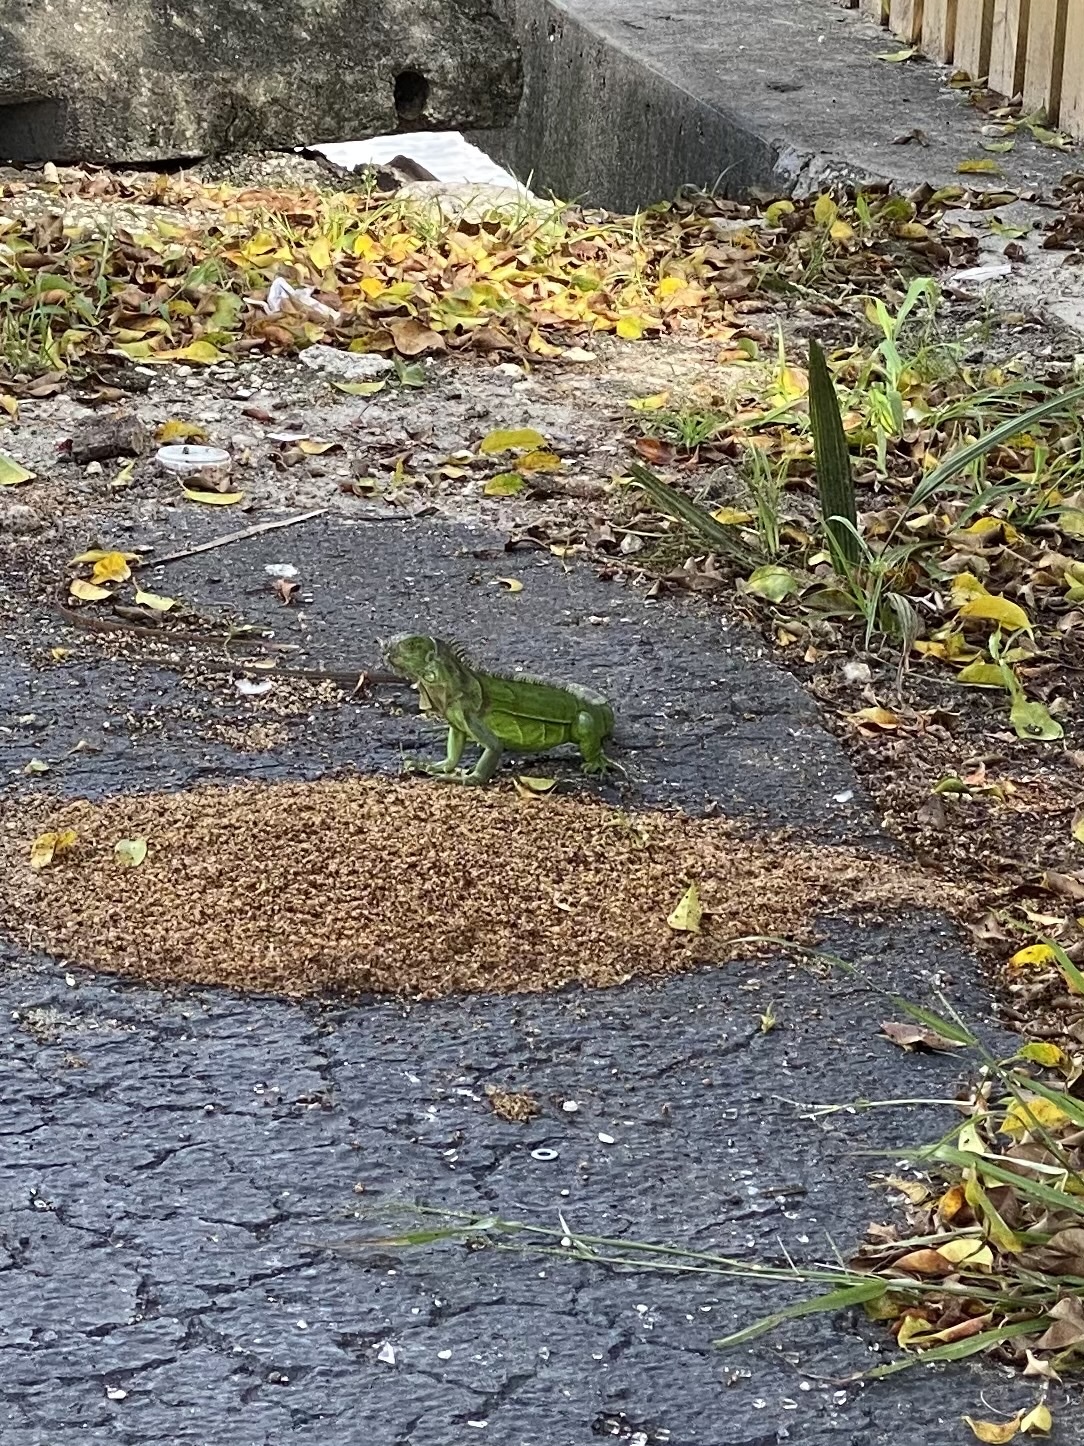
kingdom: Animalia
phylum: Chordata
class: Squamata
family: Iguanidae
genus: Iguana
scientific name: Iguana iguana
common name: Green iguana
